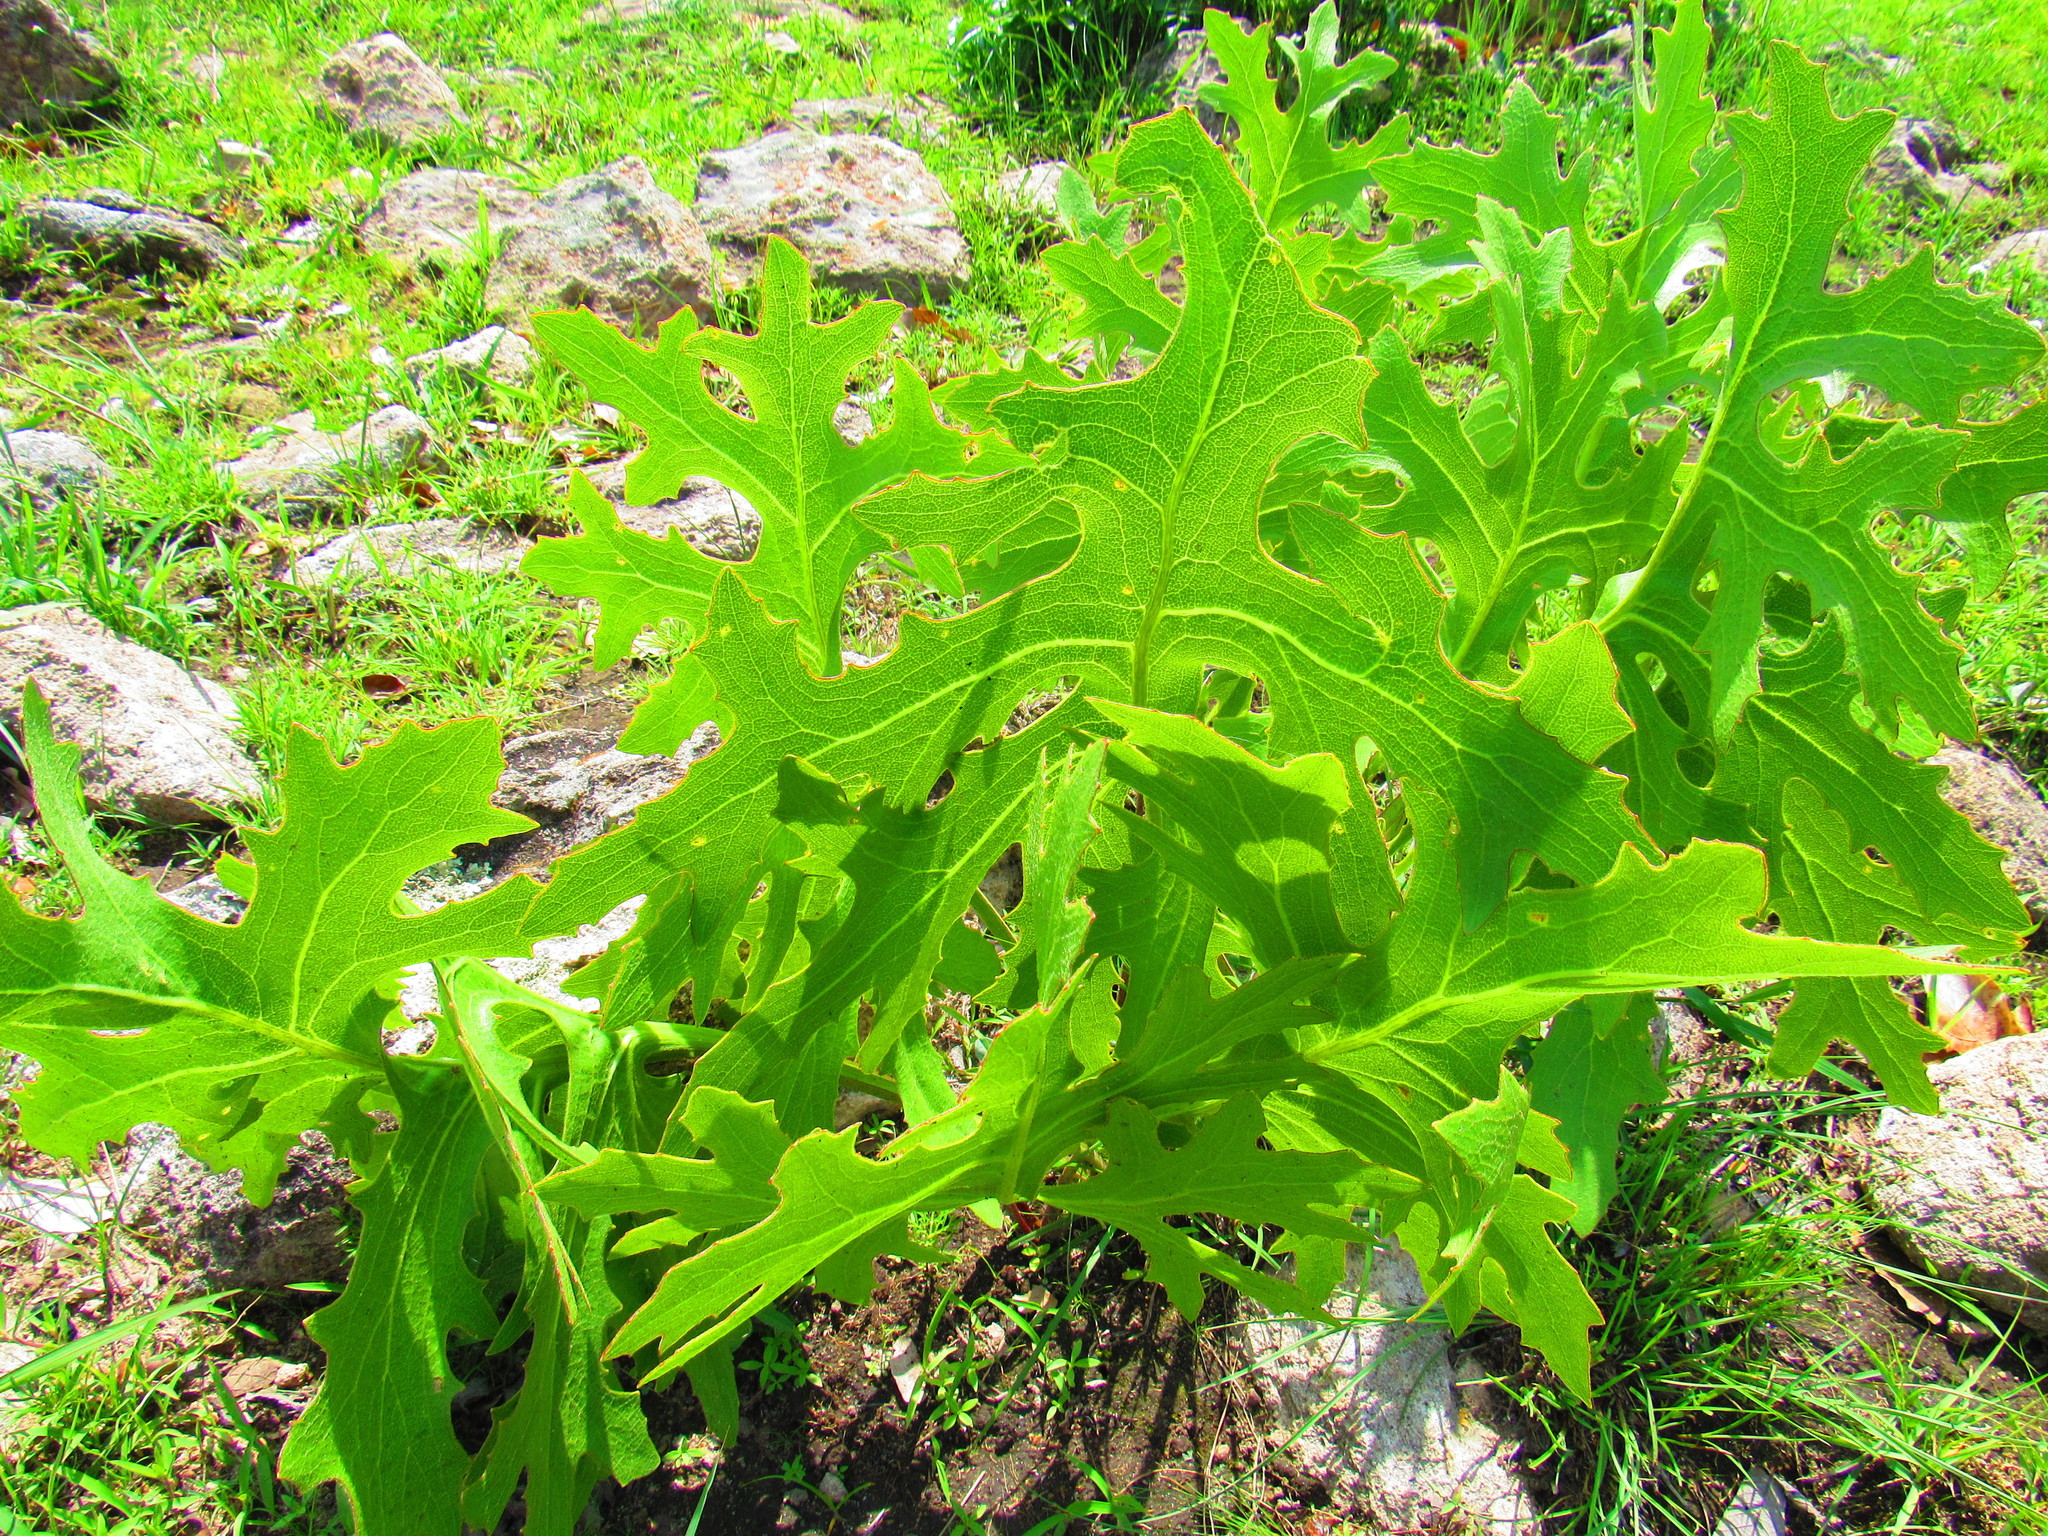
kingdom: Plantae
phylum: Tracheophyta
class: Magnoliopsida
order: Asterales
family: Asteraceae
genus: Psacalium
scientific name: Psacalium platylepis
